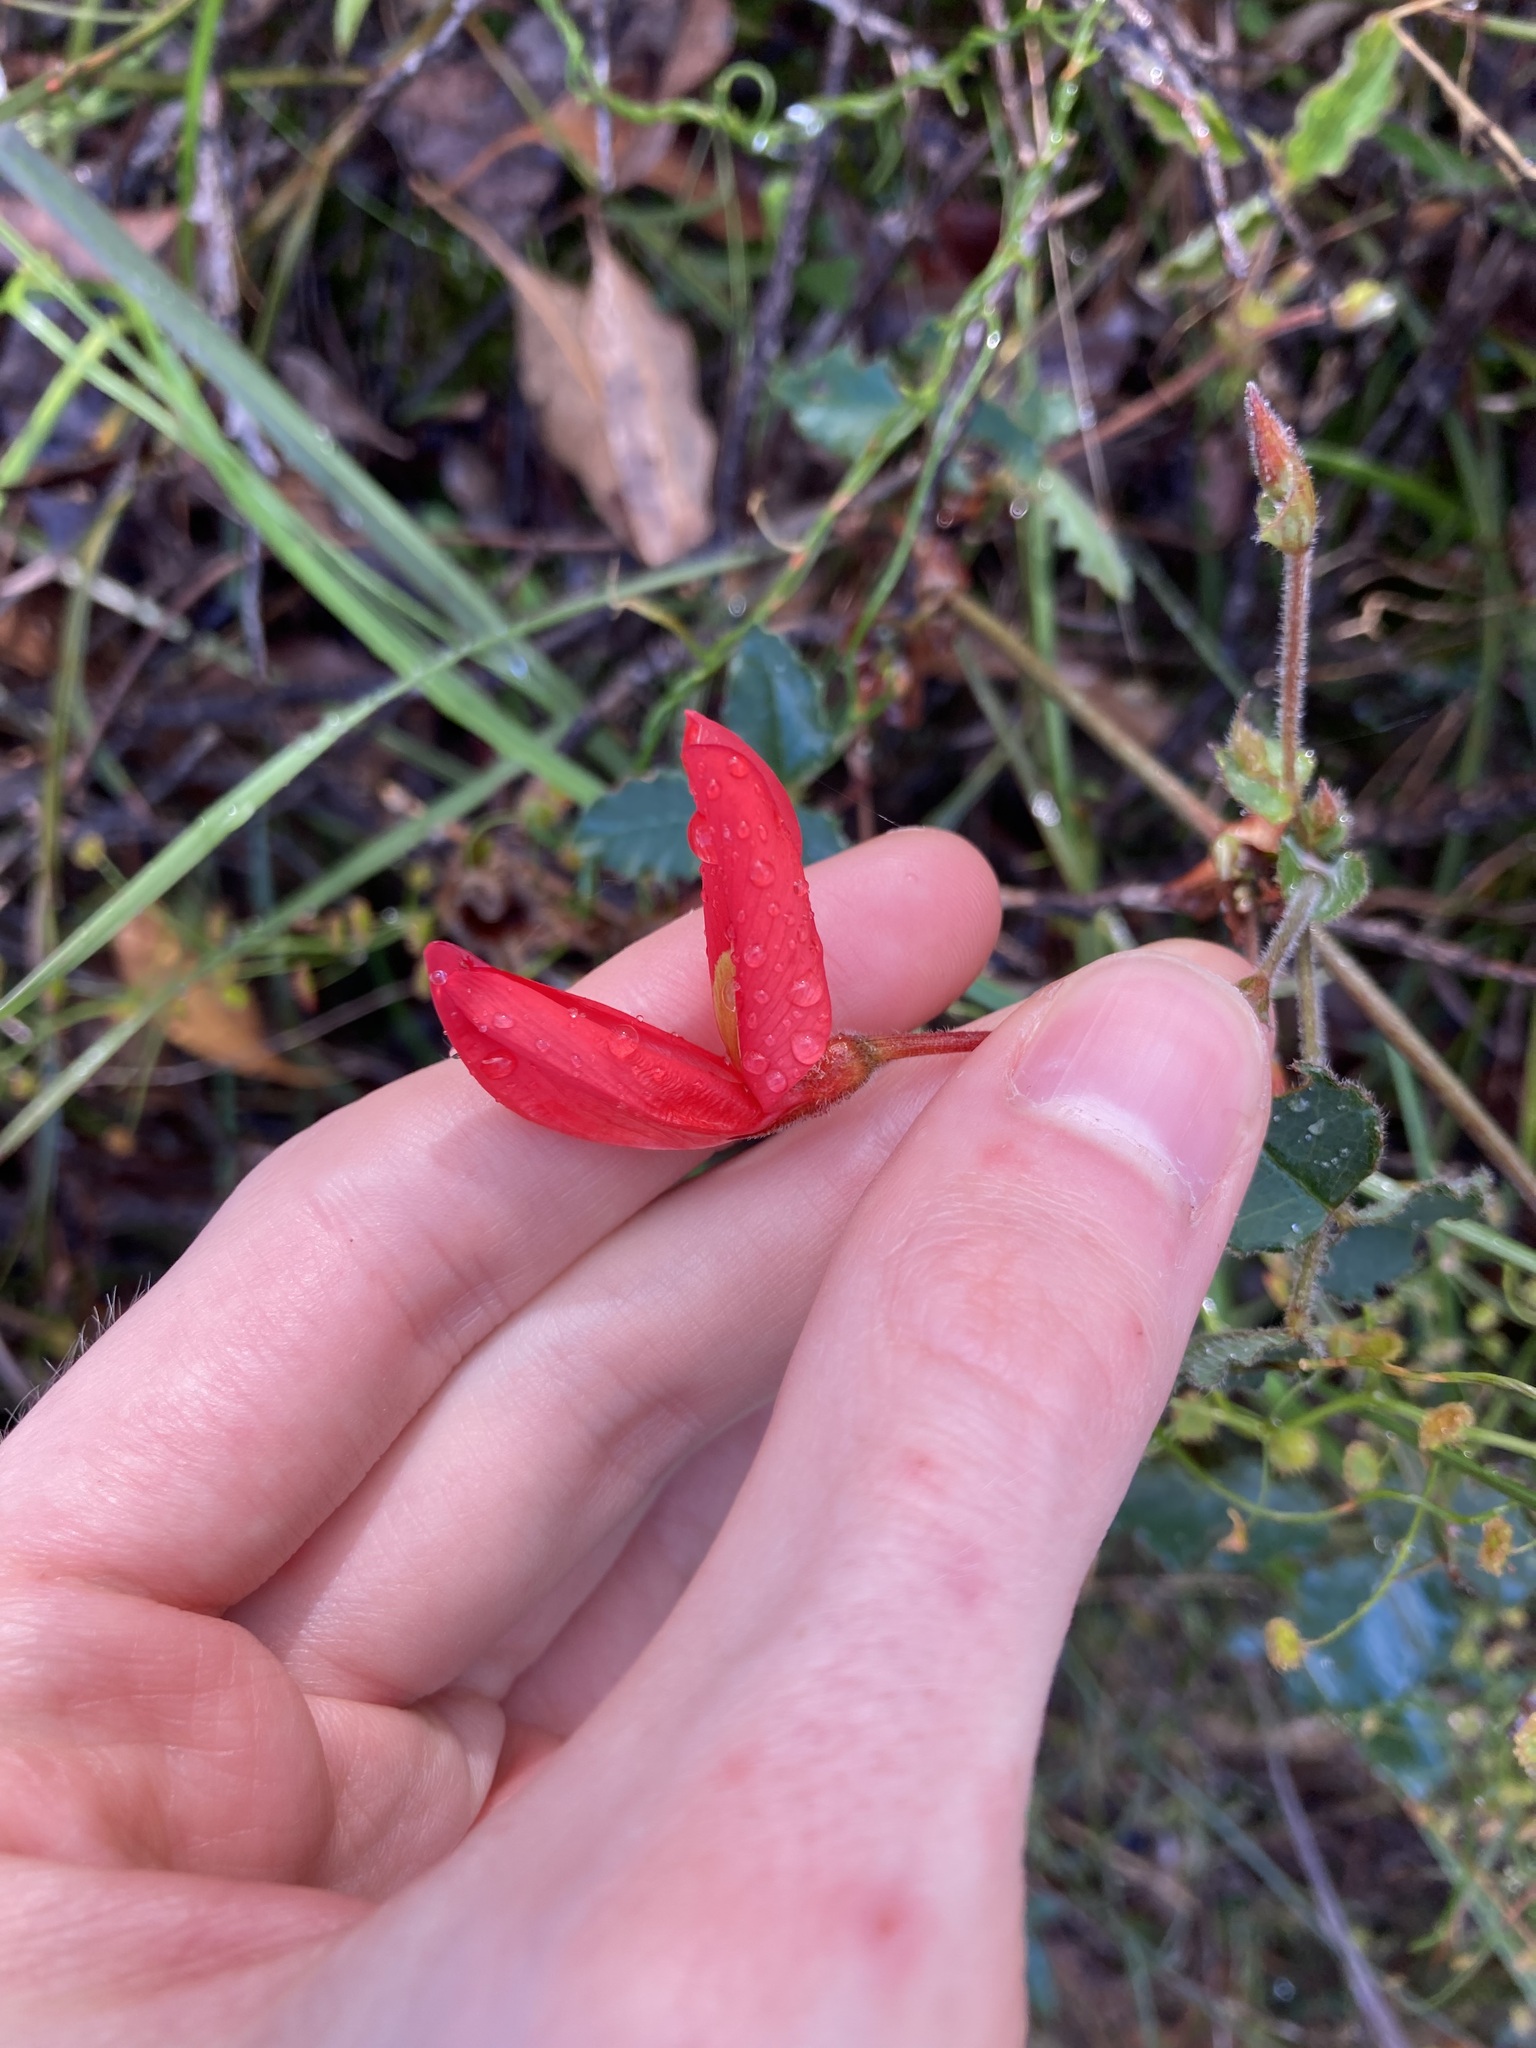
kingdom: Plantae
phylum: Tracheophyta
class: Magnoliopsida
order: Fabales
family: Fabaceae
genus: Kennedia
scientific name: Kennedia prostrata
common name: Running-postman
